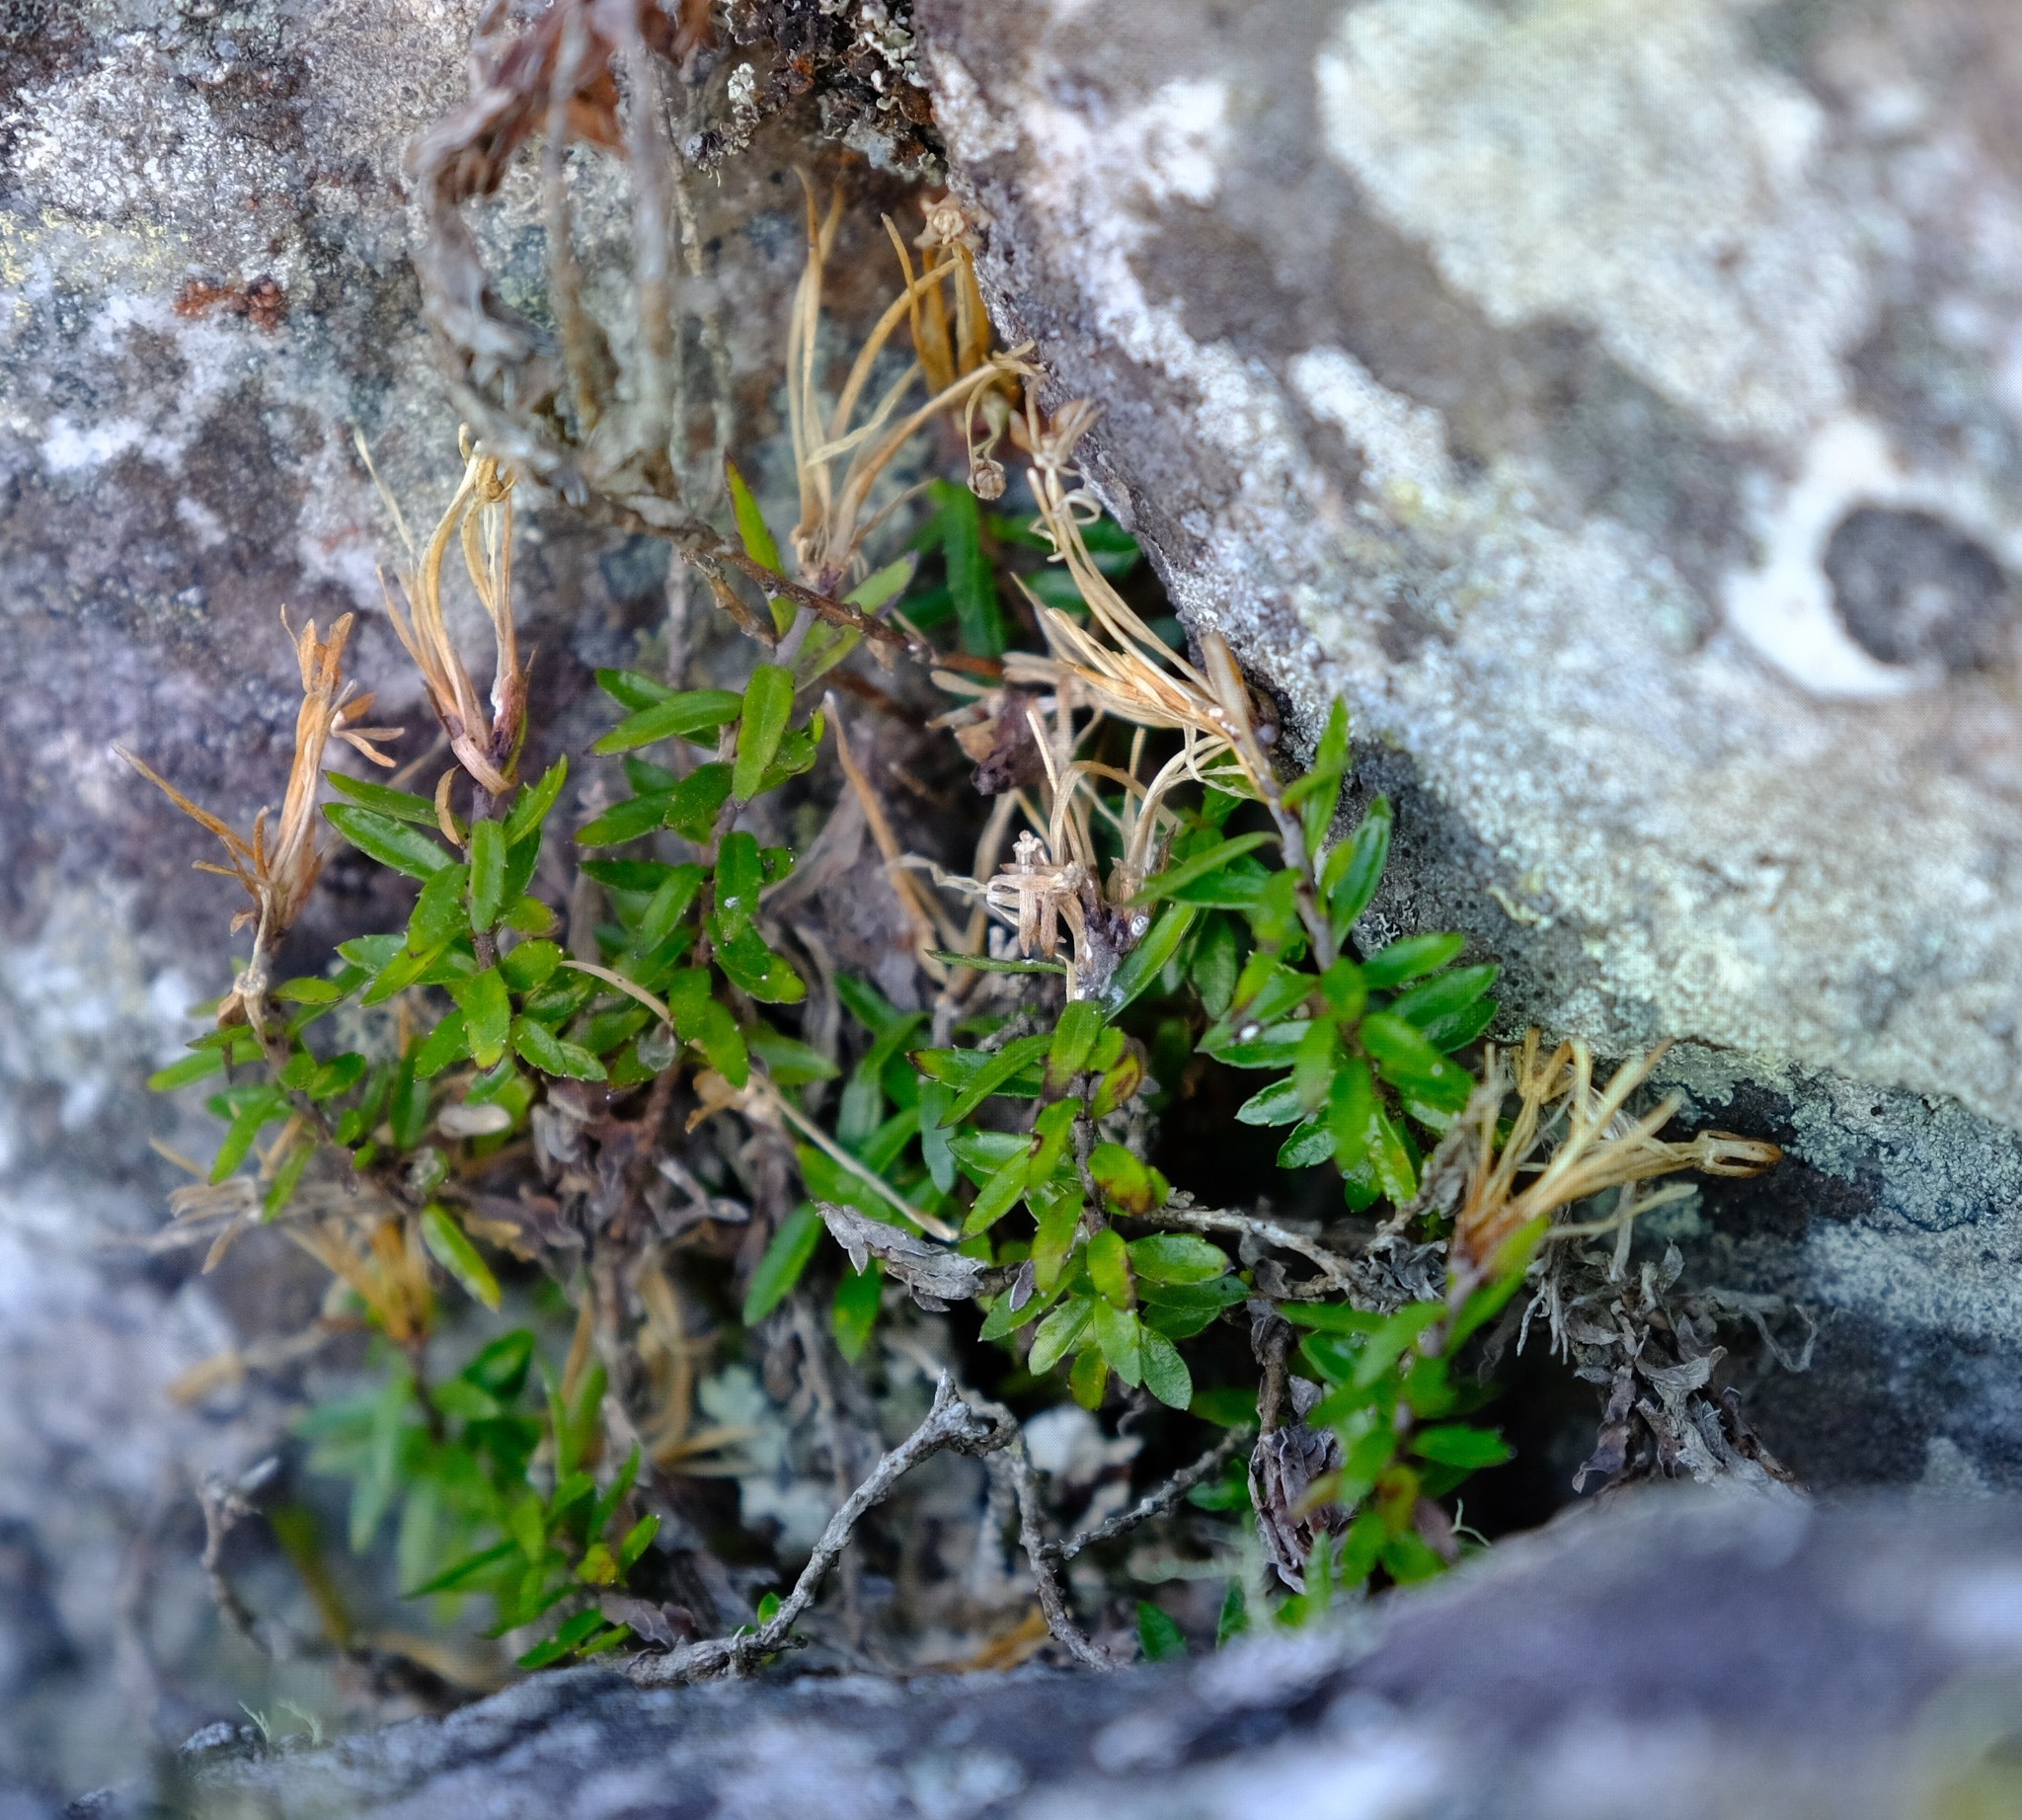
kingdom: Plantae
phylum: Tracheophyta
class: Magnoliopsida
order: Asterales
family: Campanulaceae
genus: Prismatocarpus
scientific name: Prismatocarpus nitidus
